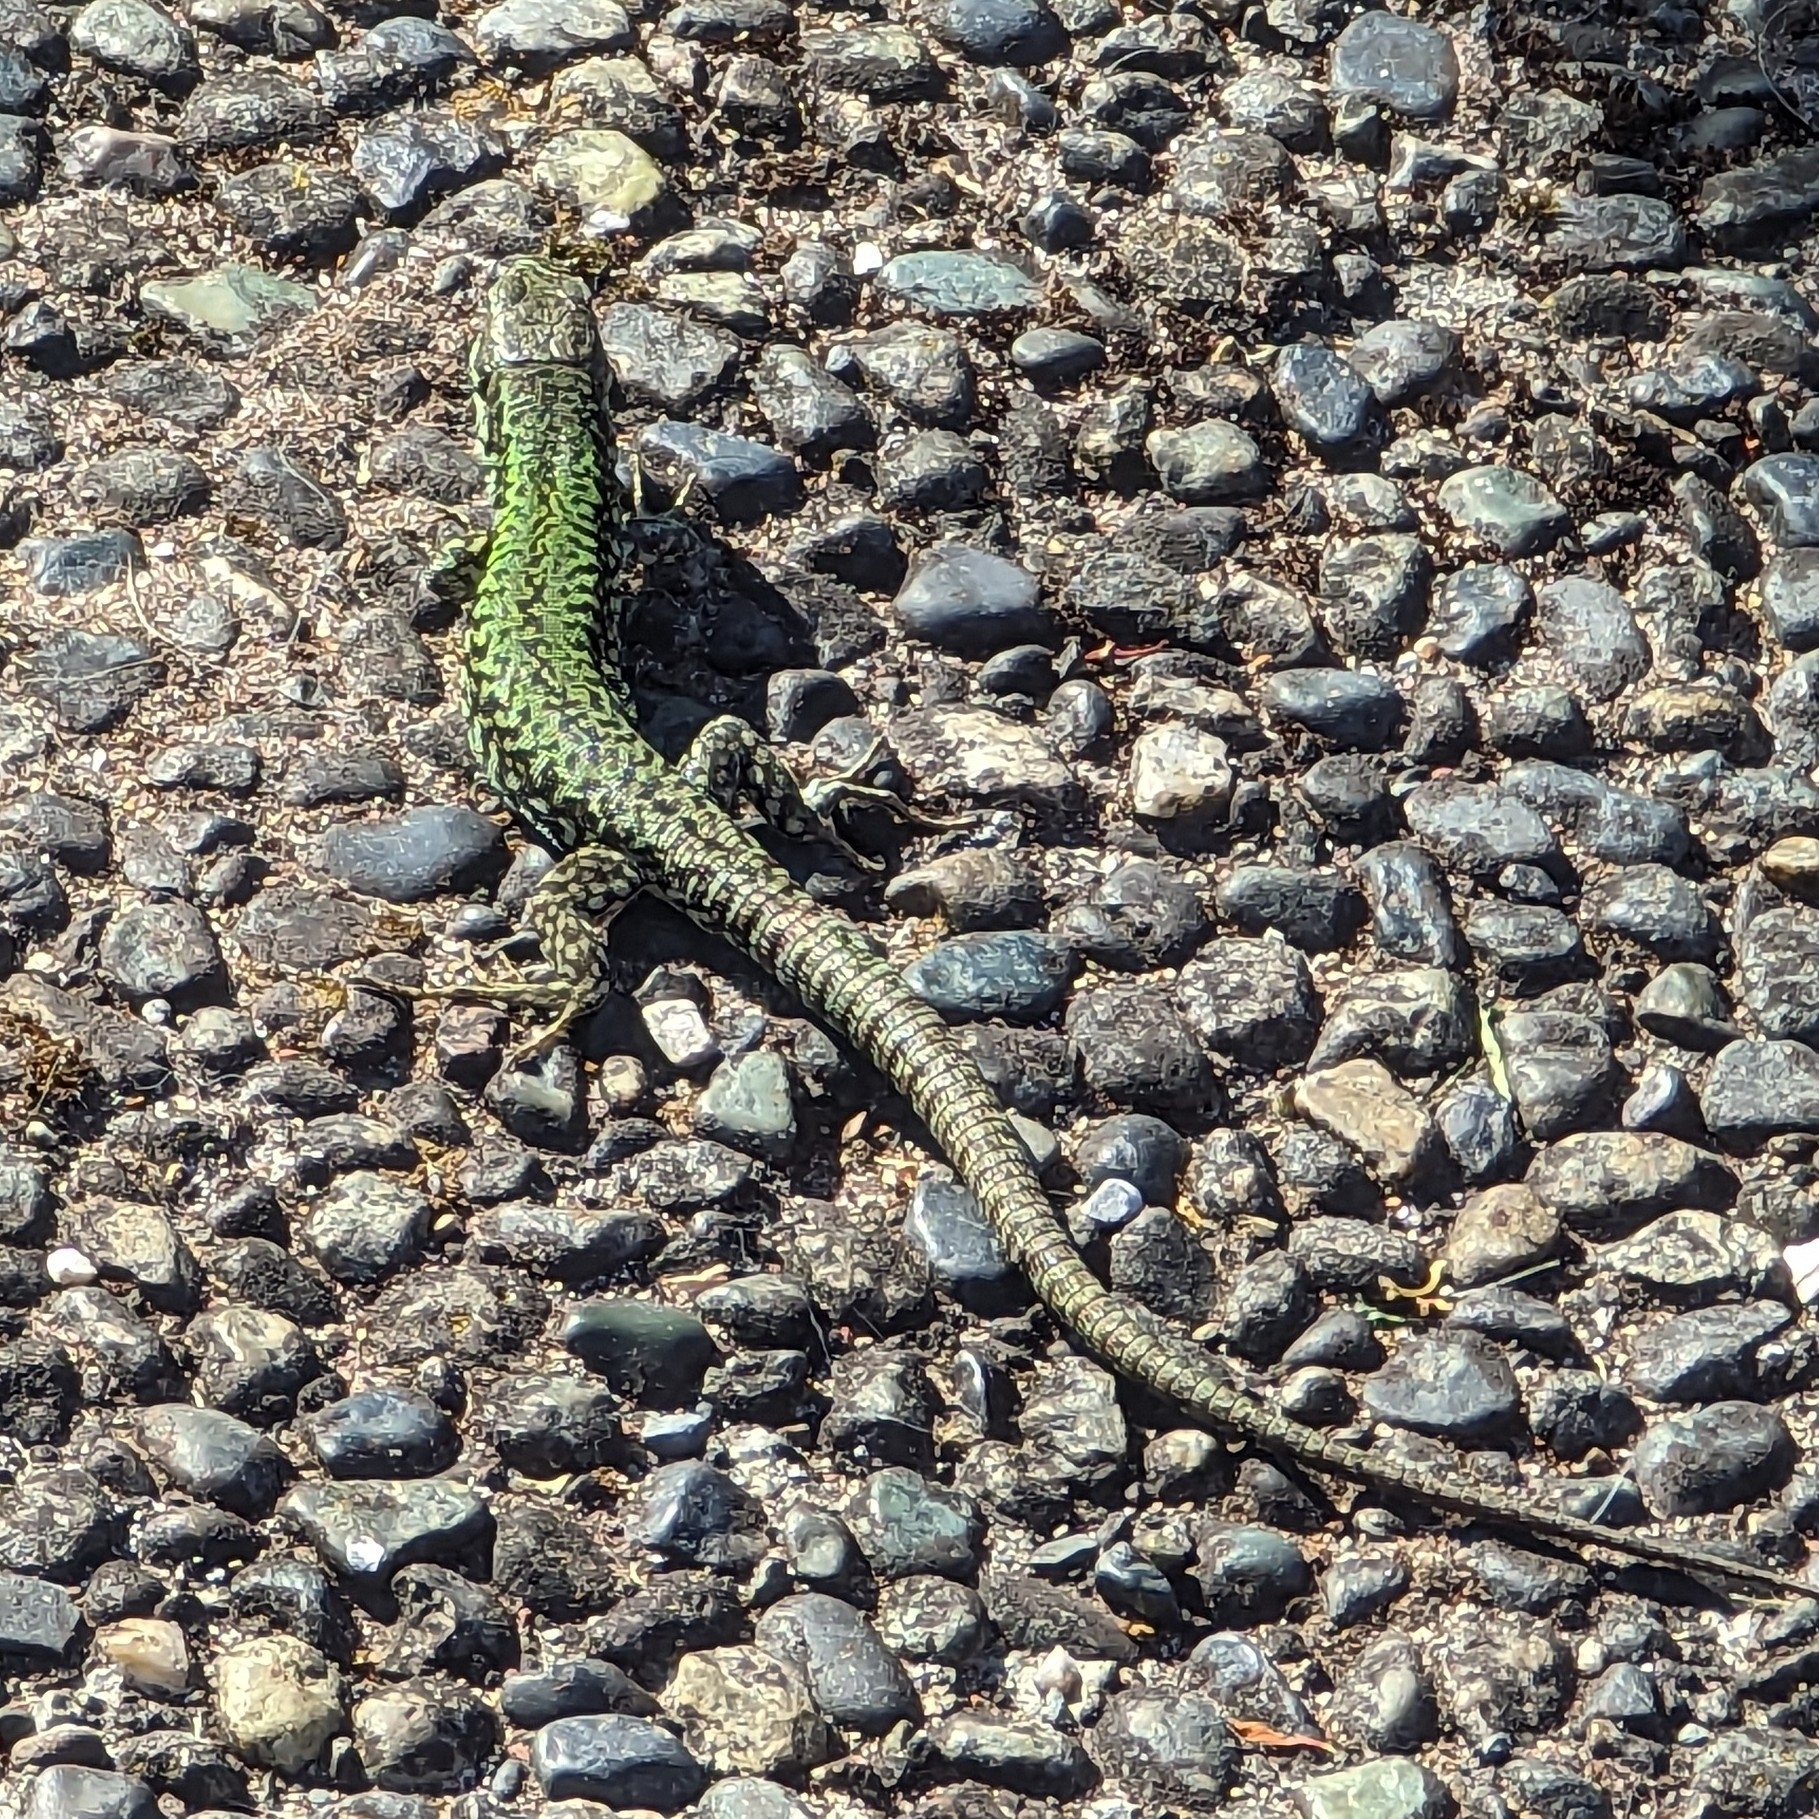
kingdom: Animalia
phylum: Chordata
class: Squamata
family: Lacertidae
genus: Podarcis
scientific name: Podarcis muralis
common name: Common wall lizard
